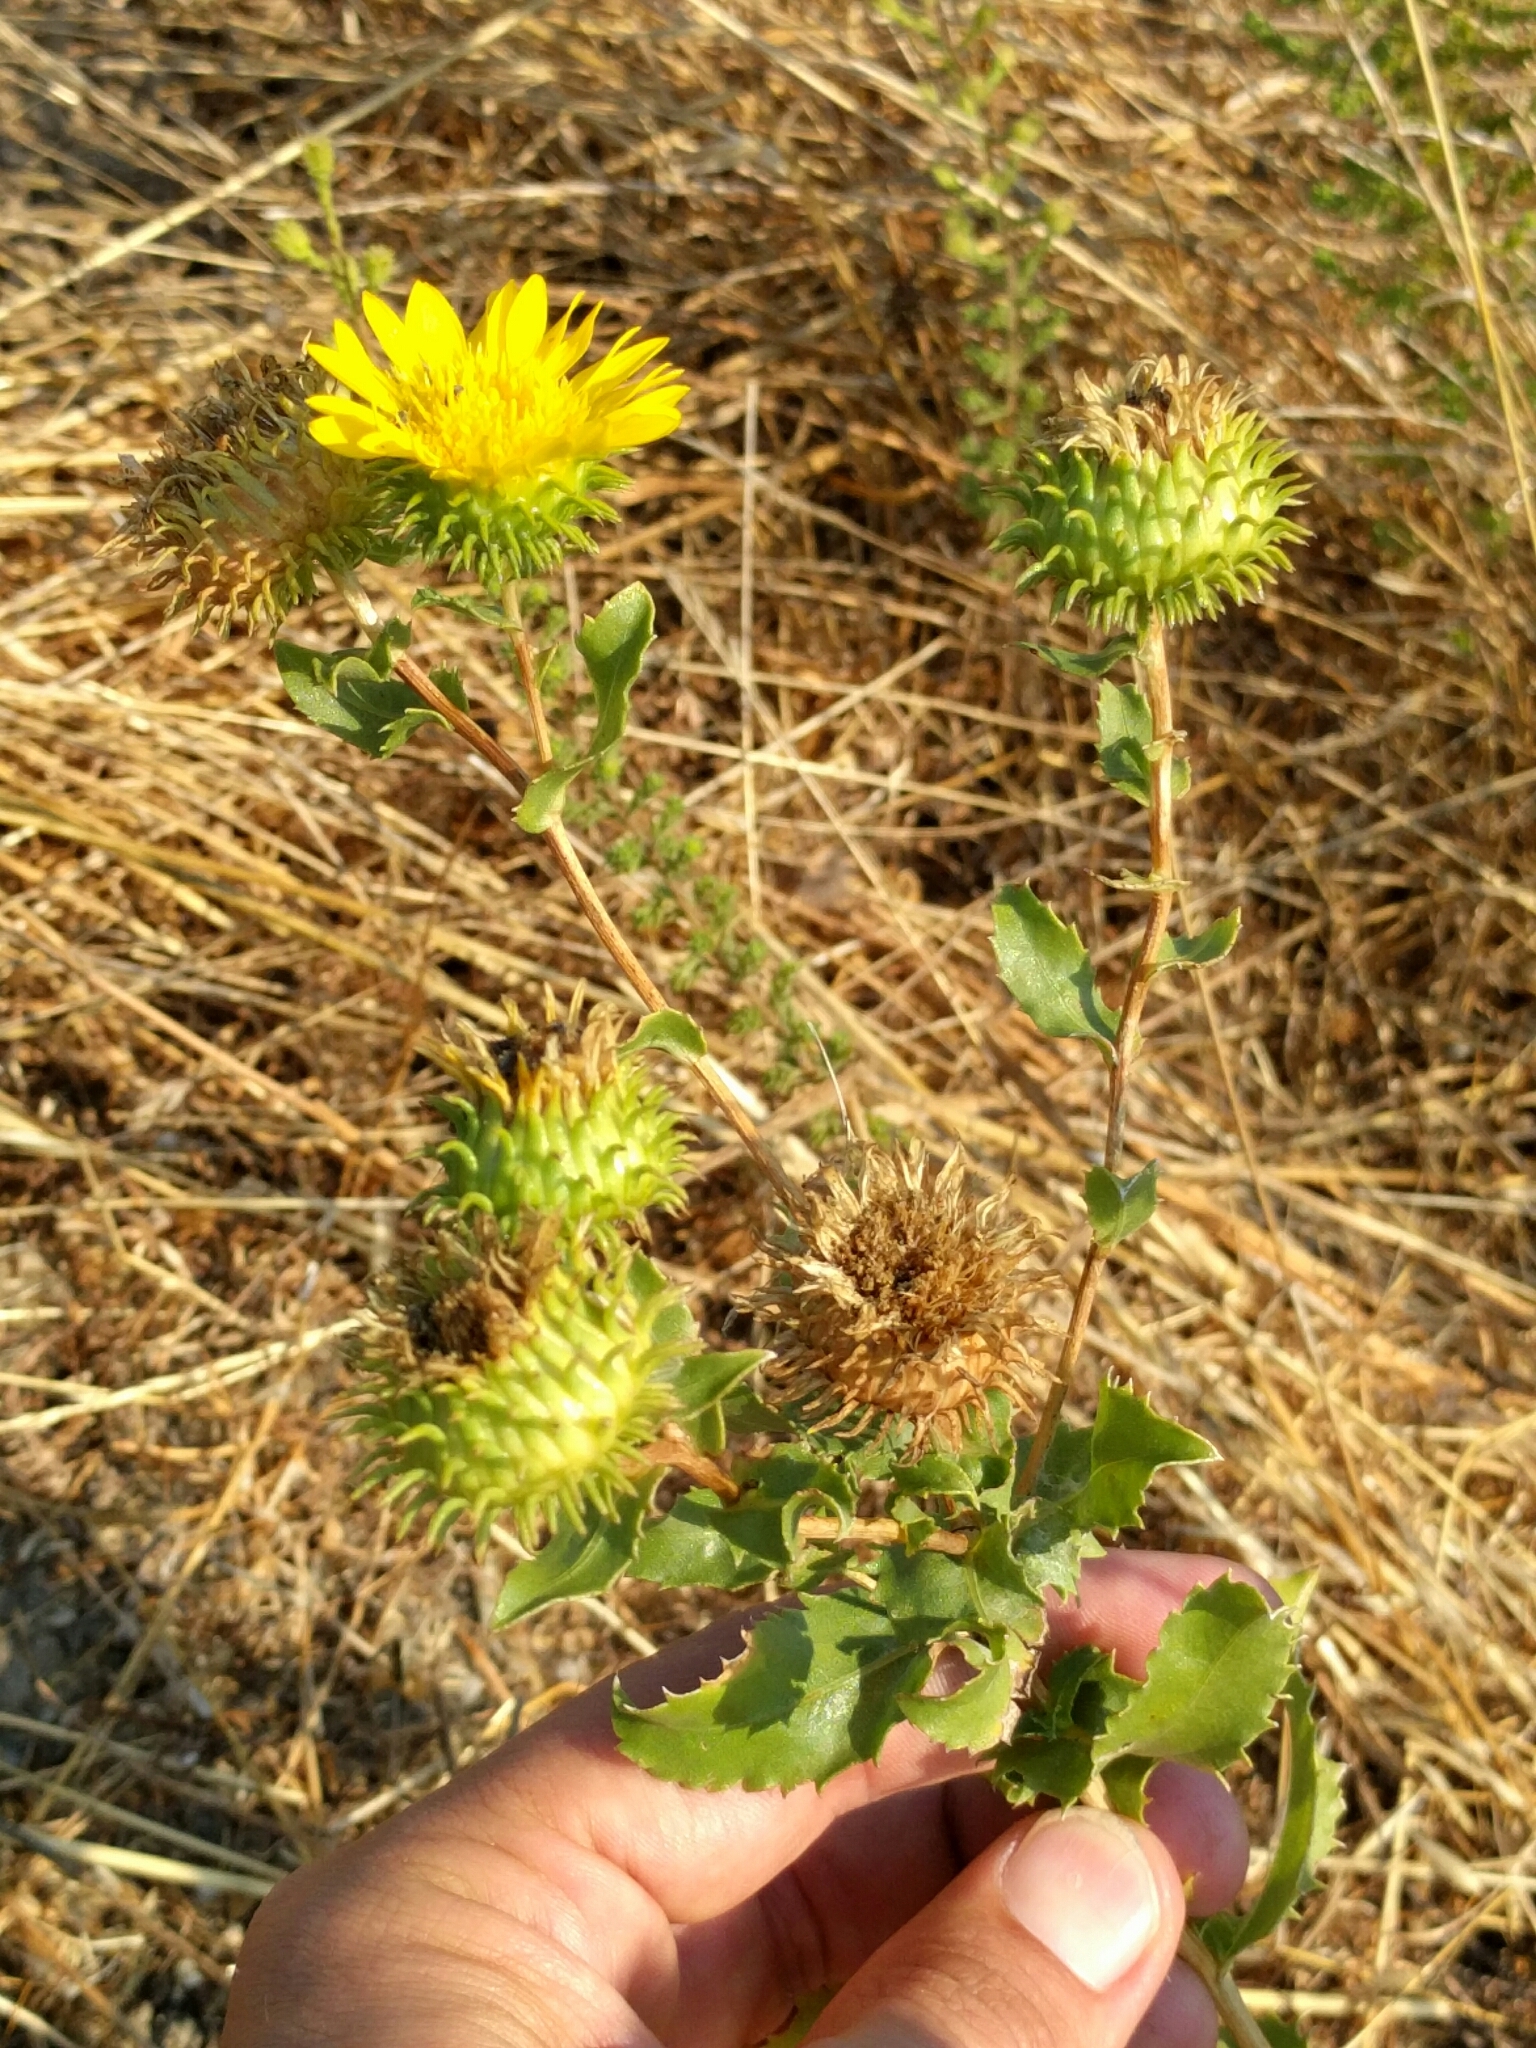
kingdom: Plantae
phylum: Tracheophyta
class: Magnoliopsida
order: Asterales
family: Asteraceae
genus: Grindelia
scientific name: Grindelia hirsutula
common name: Hairy gumweed
